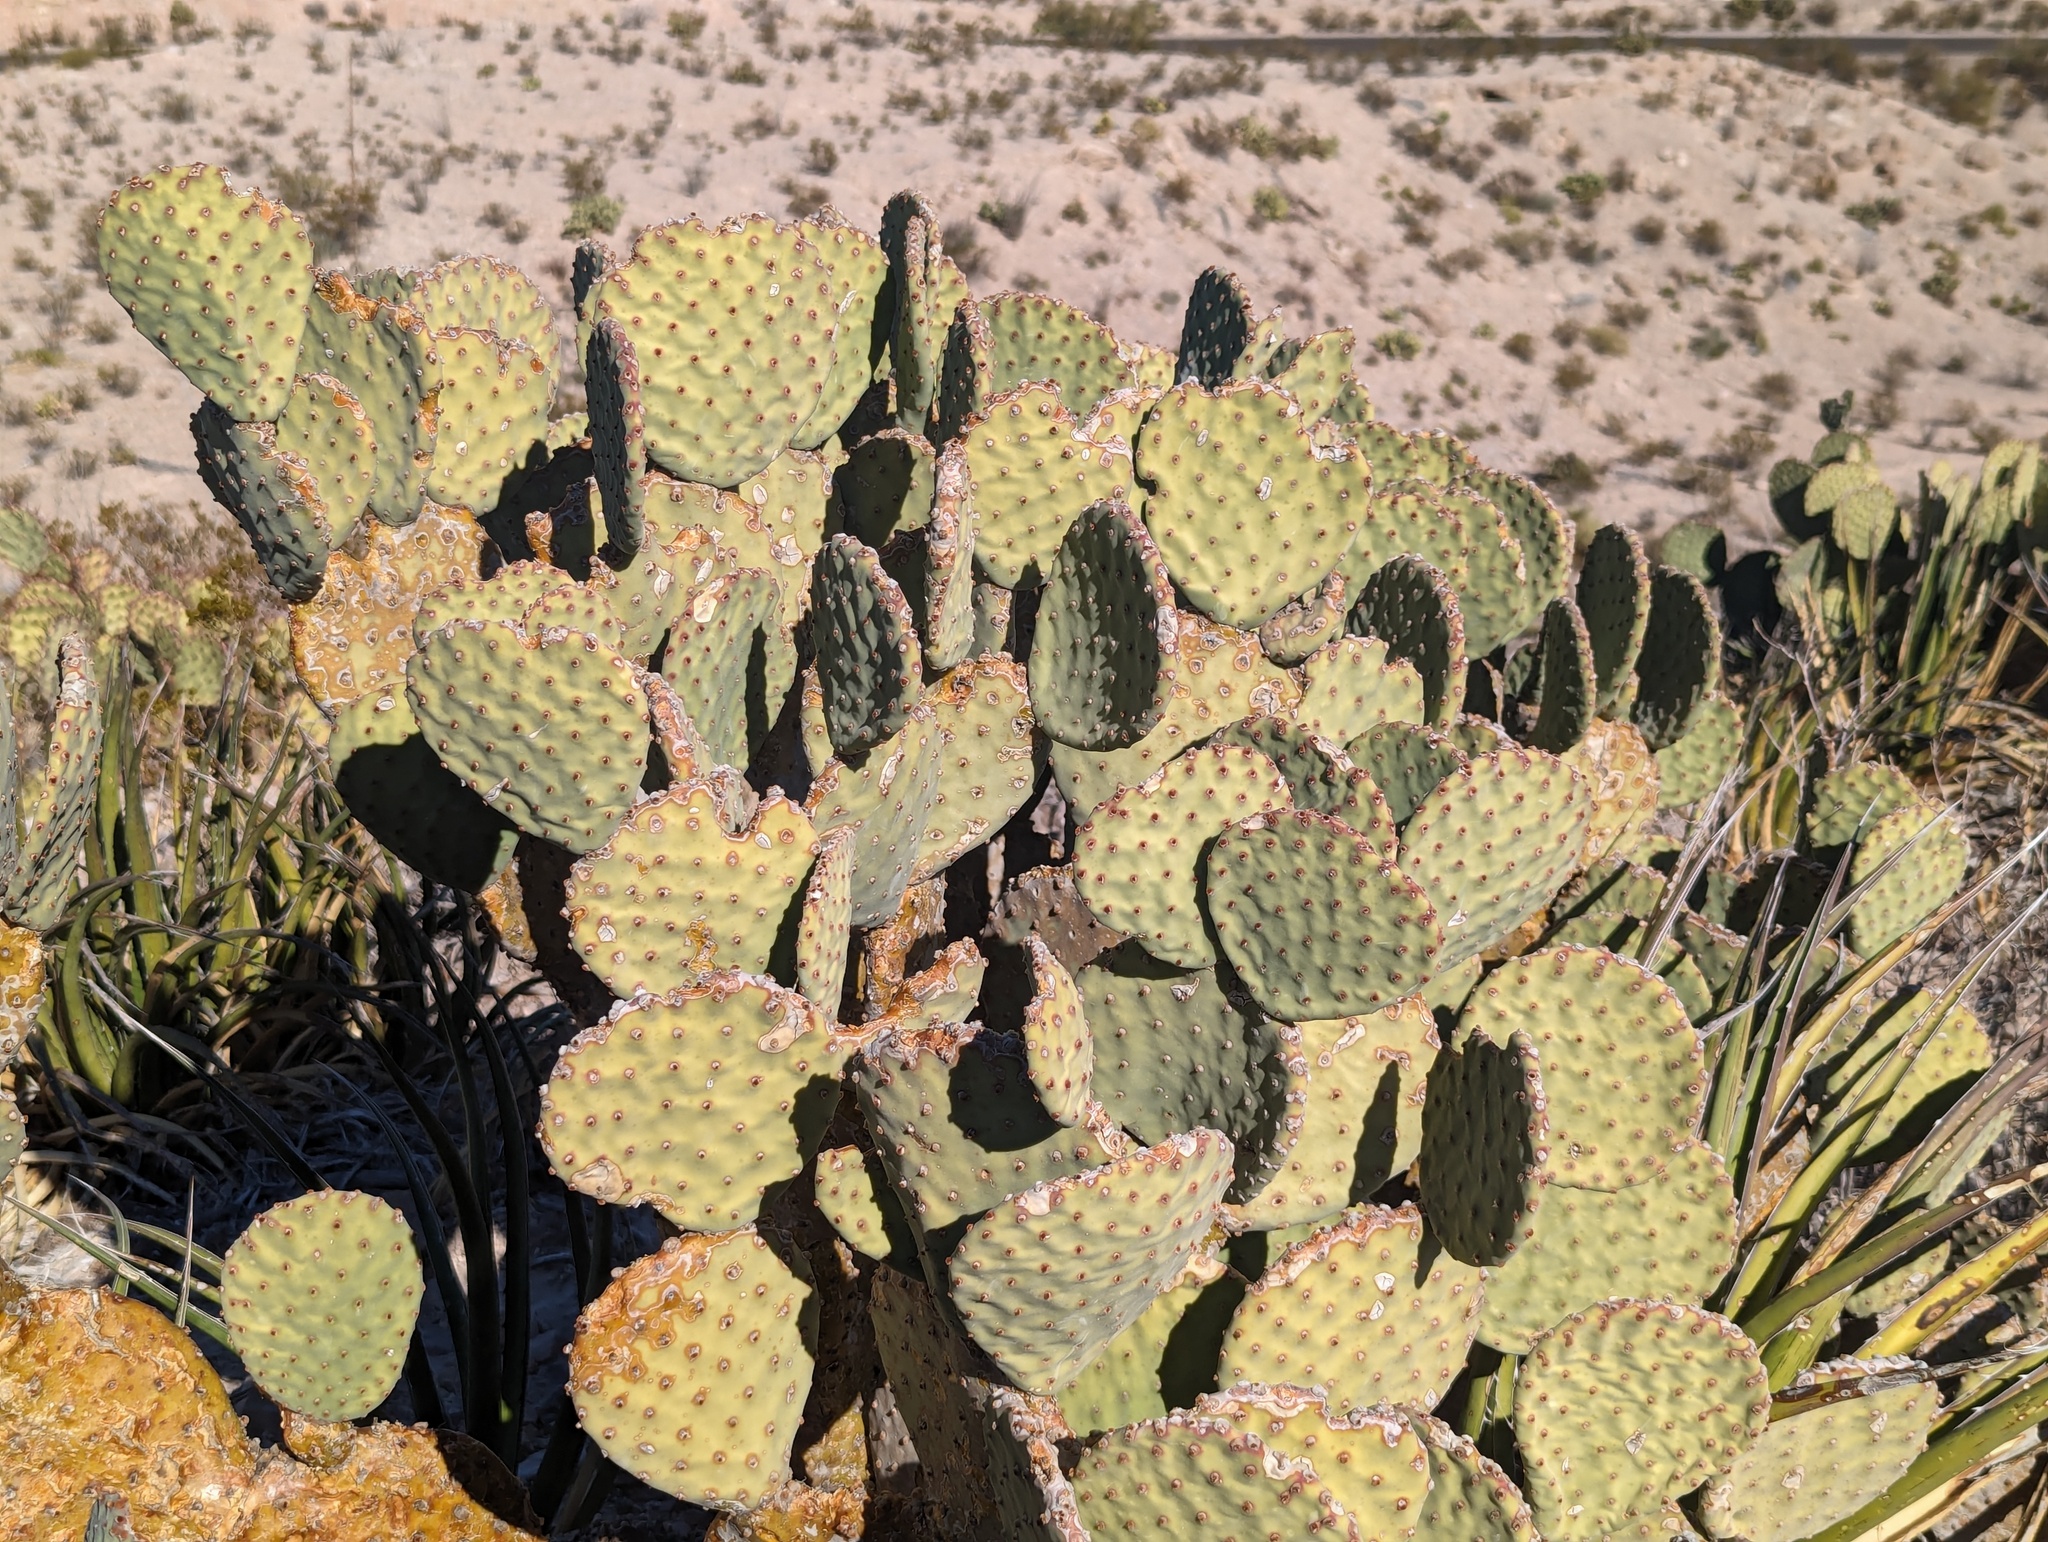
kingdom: Plantae
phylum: Tracheophyta
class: Magnoliopsida
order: Caryophyllales
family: Cactaceae
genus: Opuntia
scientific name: Opuntia rufida
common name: Blind pricklypear
